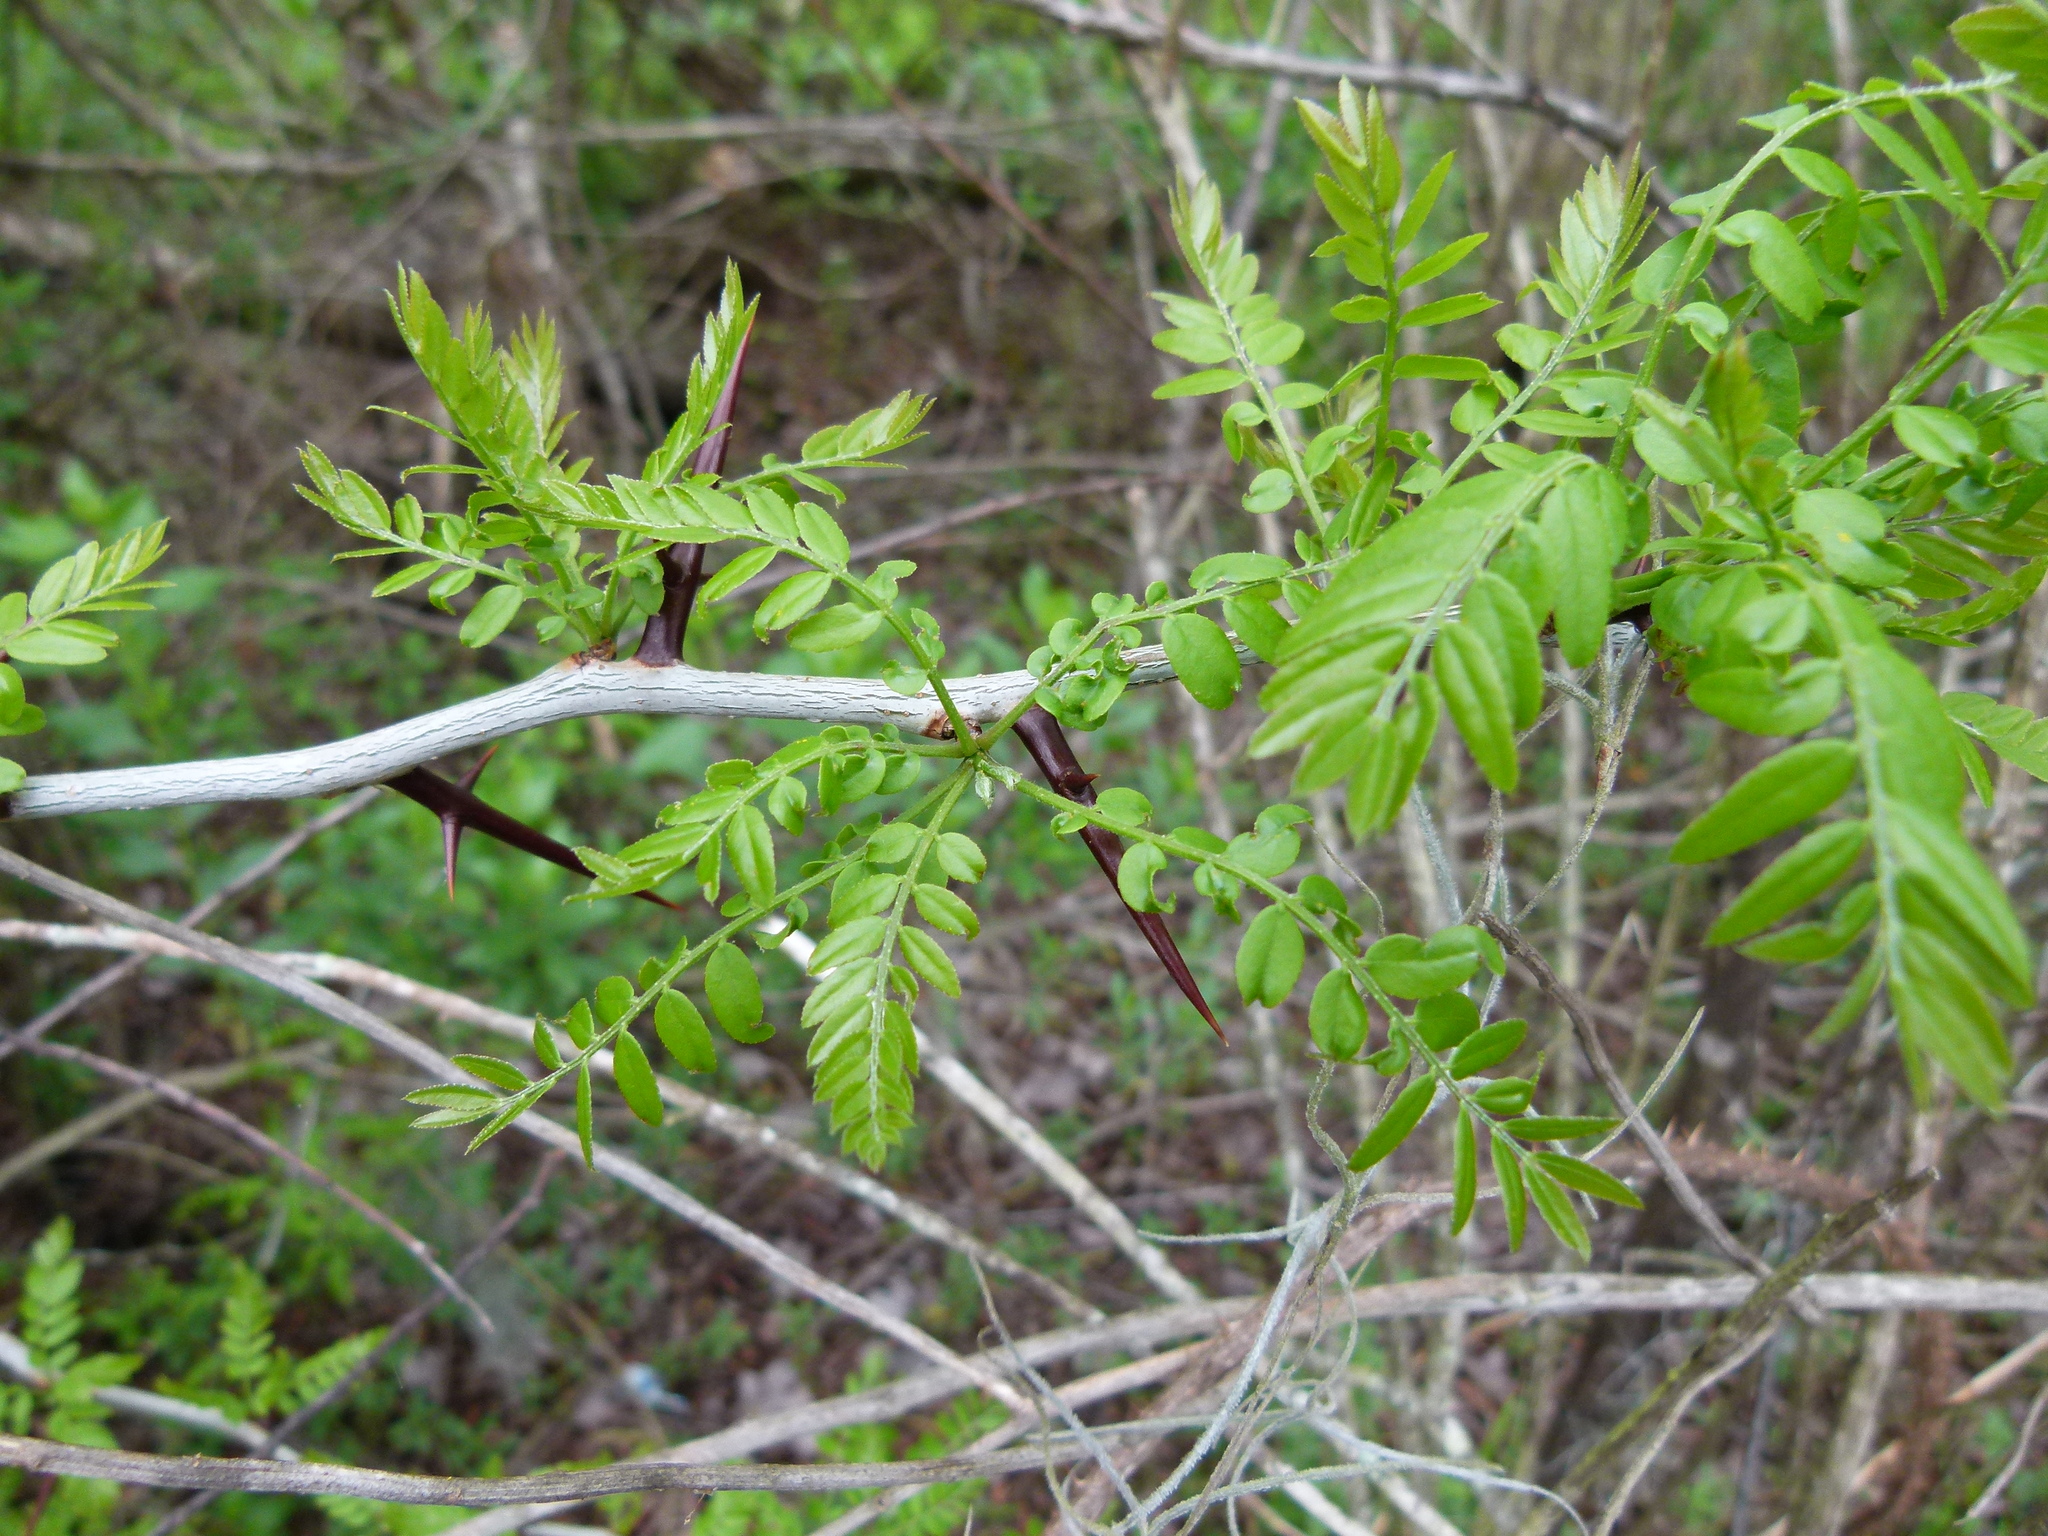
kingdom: Plantae
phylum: Tracheophyta
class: Magnoliopsida
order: Fabales
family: Fabaceae
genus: Gleditsia
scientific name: Gleditsia triacanthos
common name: Common honeylocust
